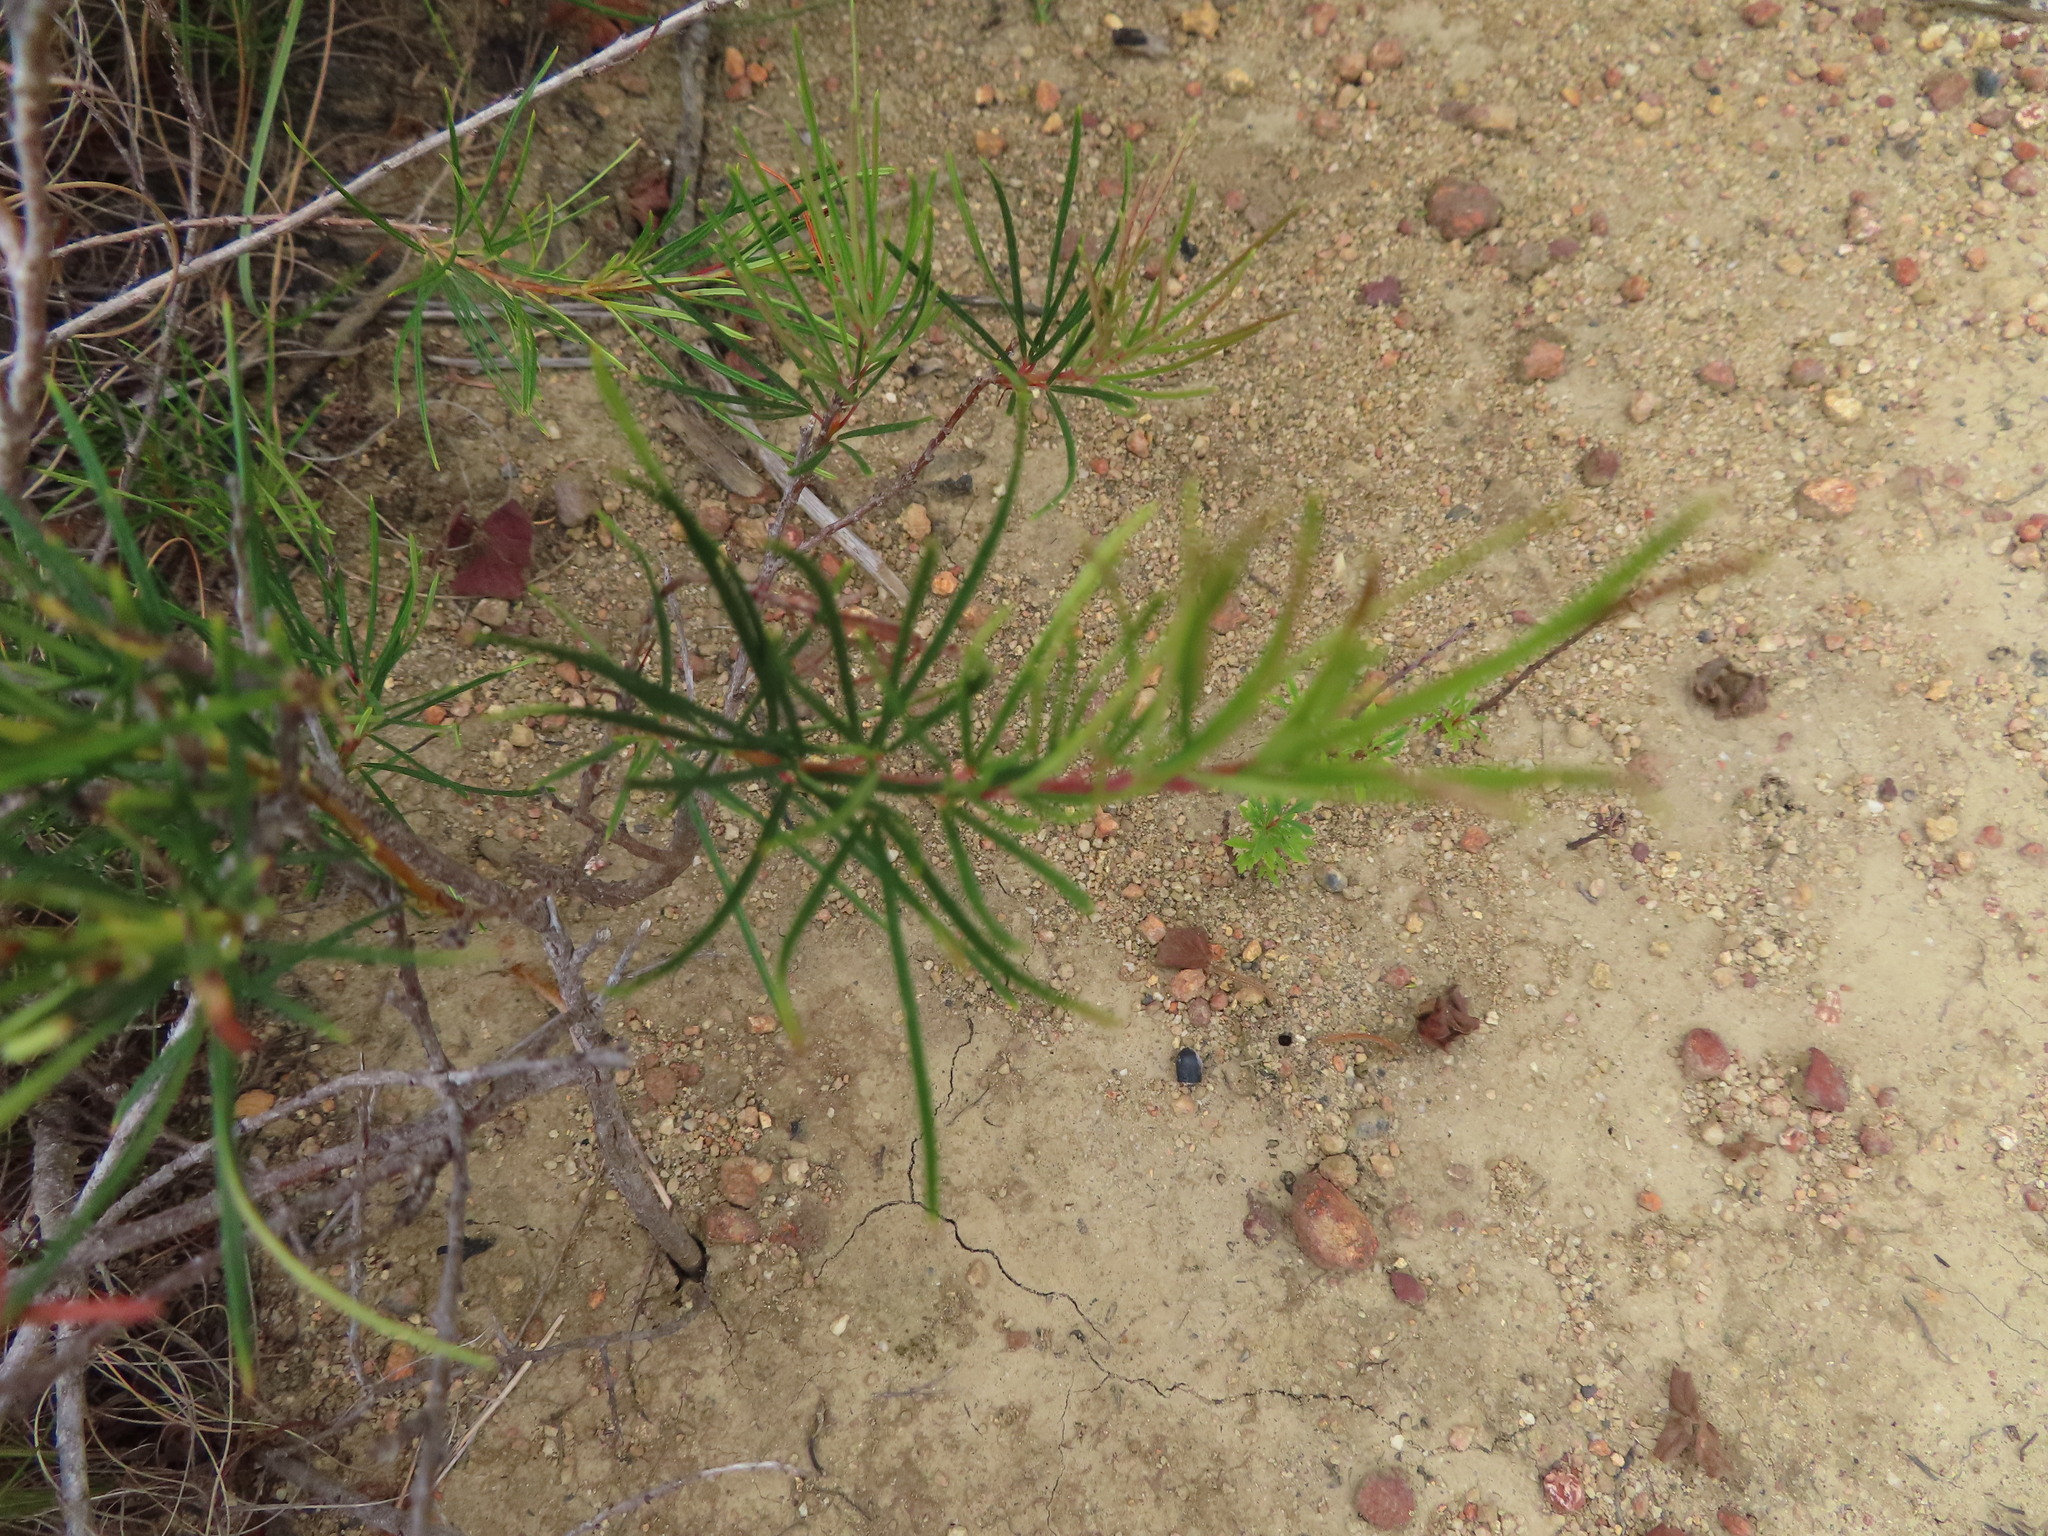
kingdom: Plantae
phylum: Tracheophyta
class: Magnoliopsida
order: Sapindales
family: Anacardiaceae
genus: Searsia
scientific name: Searsia rosmarinifolia
